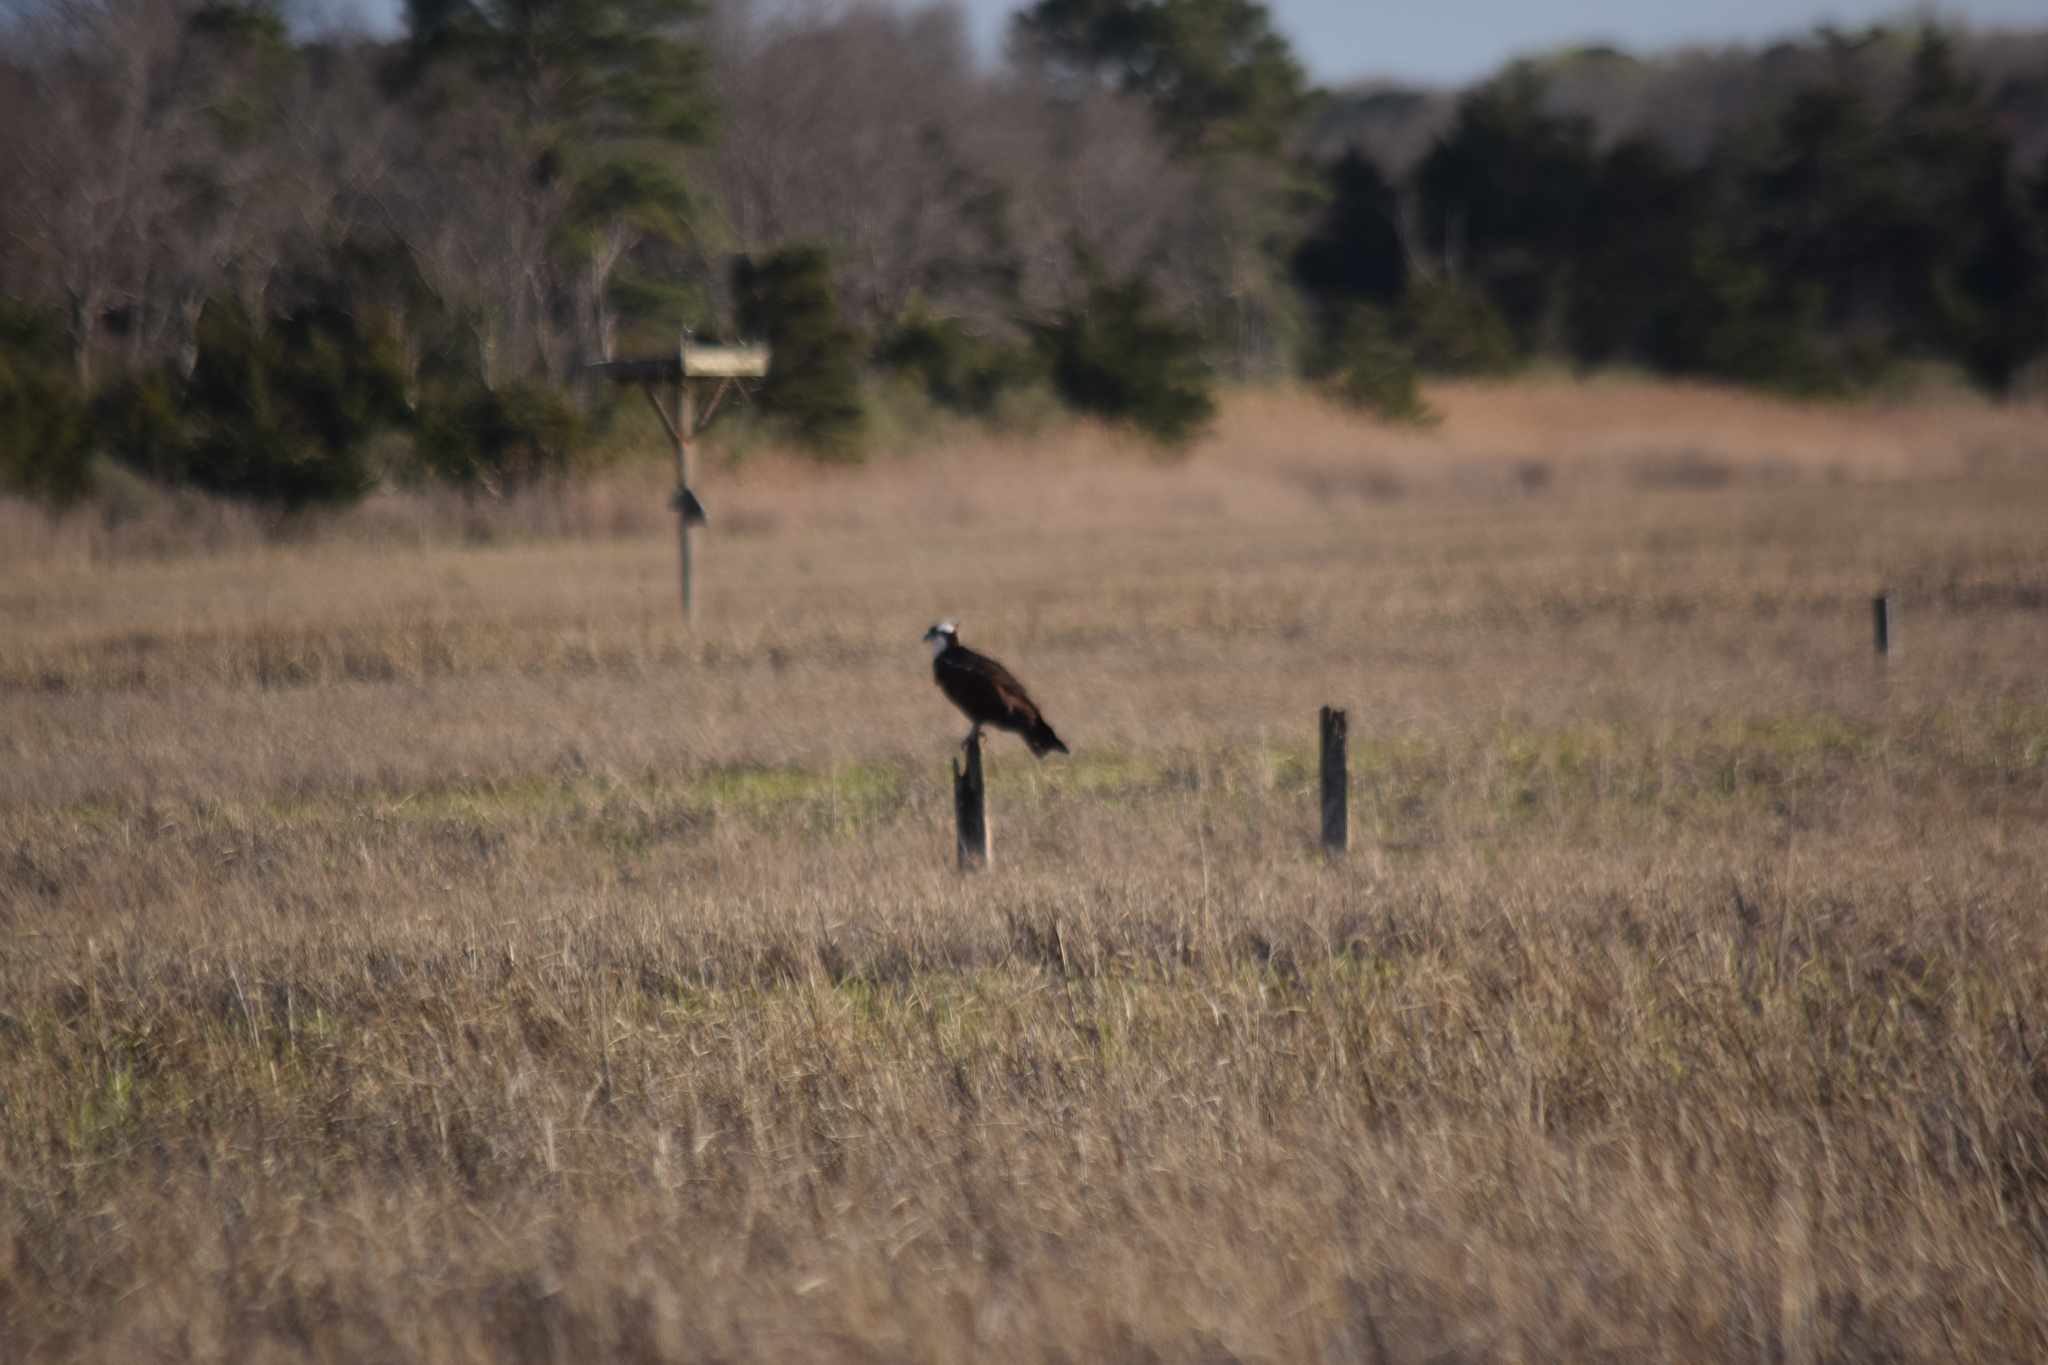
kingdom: Animalia
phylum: Chordata
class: Aves
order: Accipitriformes
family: Pandionidae
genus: Pandion
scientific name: Pandion haliaetus
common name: Osprey
